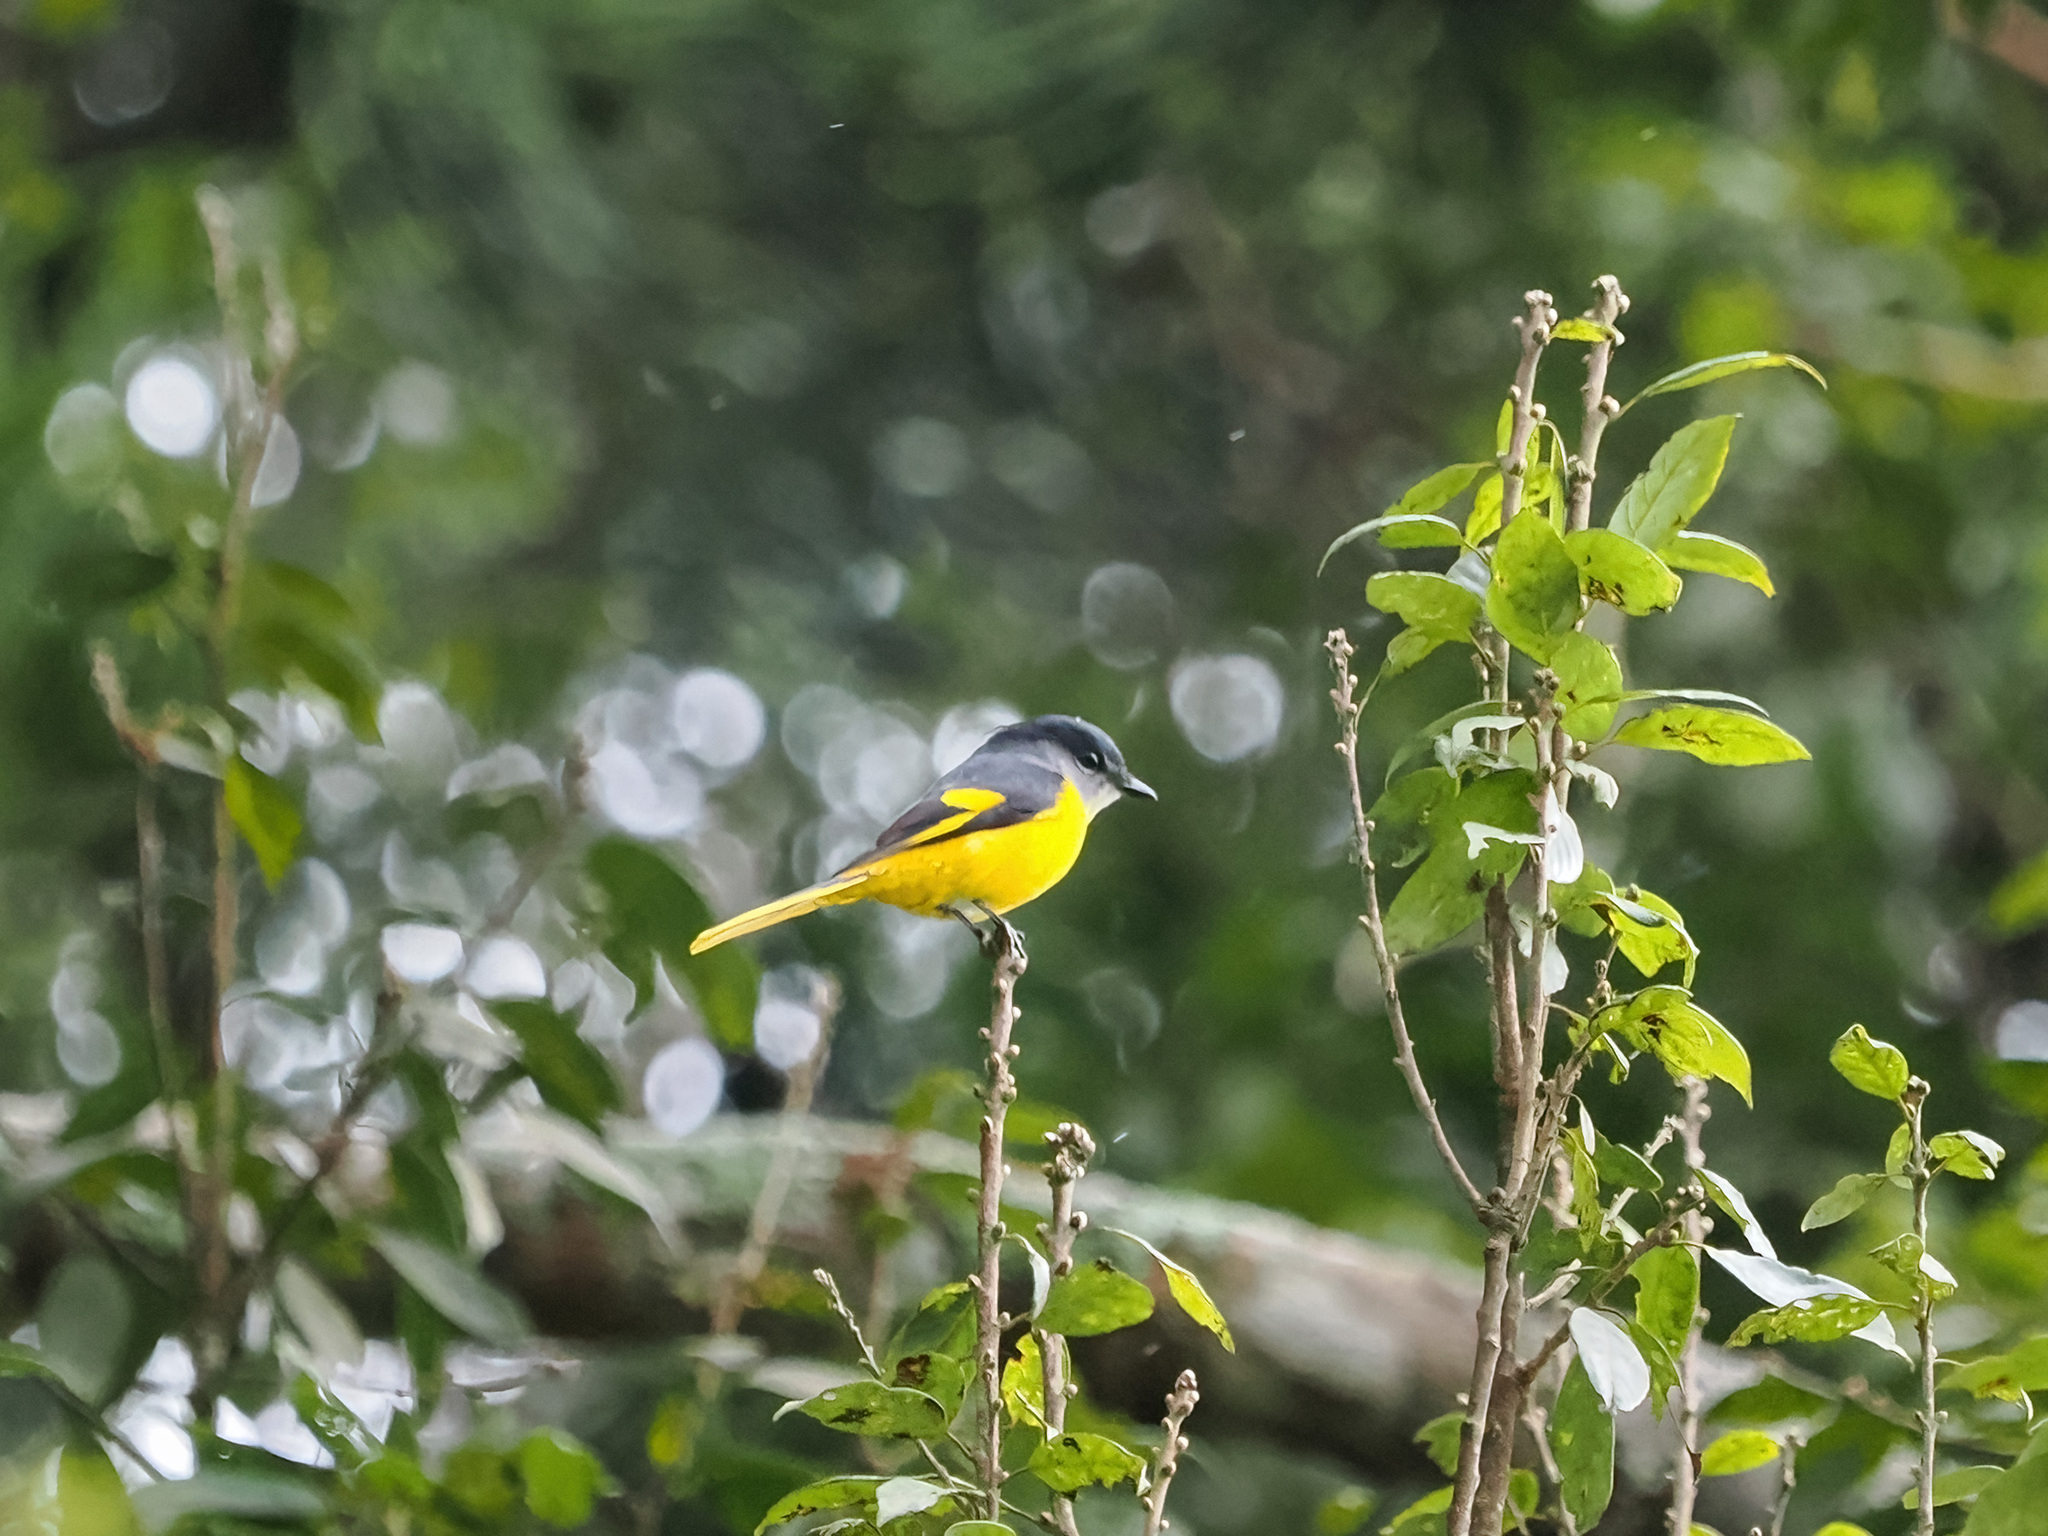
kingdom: Animalia
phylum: Chordata
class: Aves
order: Passeriformes
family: Campephagidae
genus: Pericrocotus
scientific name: Pericrocotus solaris
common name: Grey-chinned minivet
